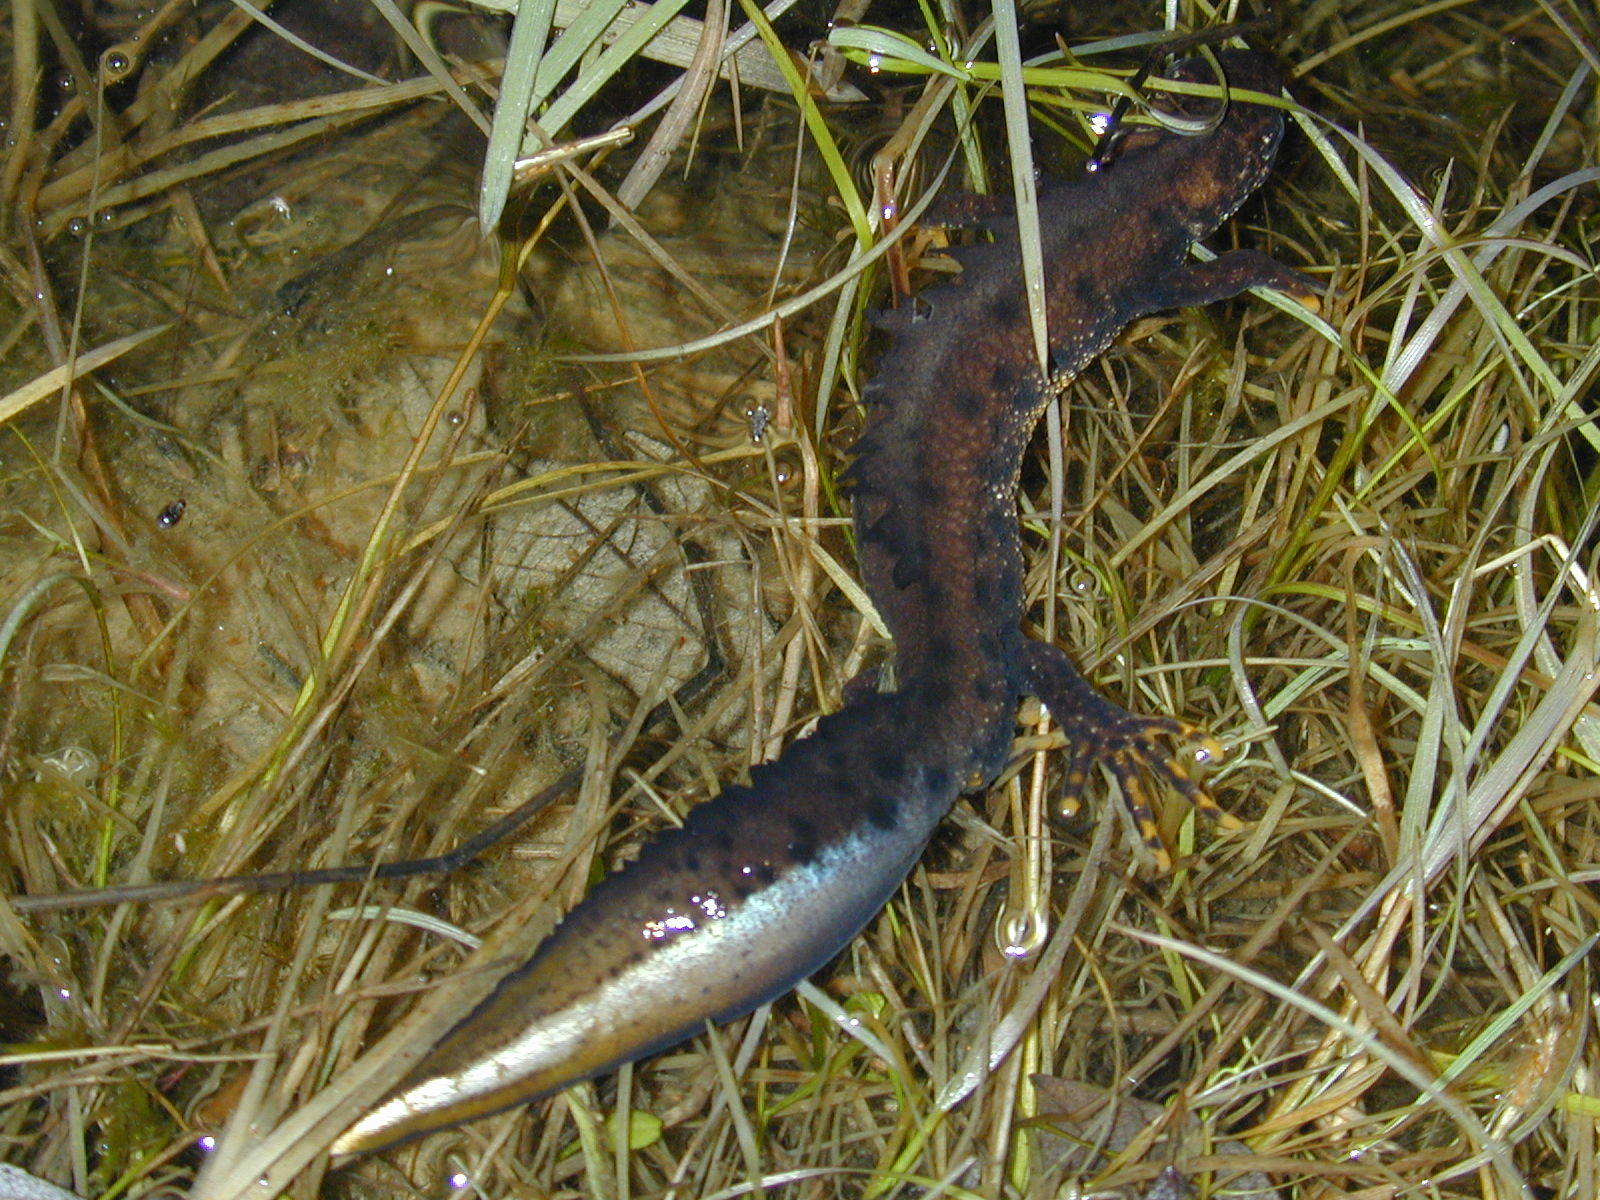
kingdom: Animalia
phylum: Chordata
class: Amphibia
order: Caudata
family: Salamandridae
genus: Triturus
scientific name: Triturus cristatus
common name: Crested newt
